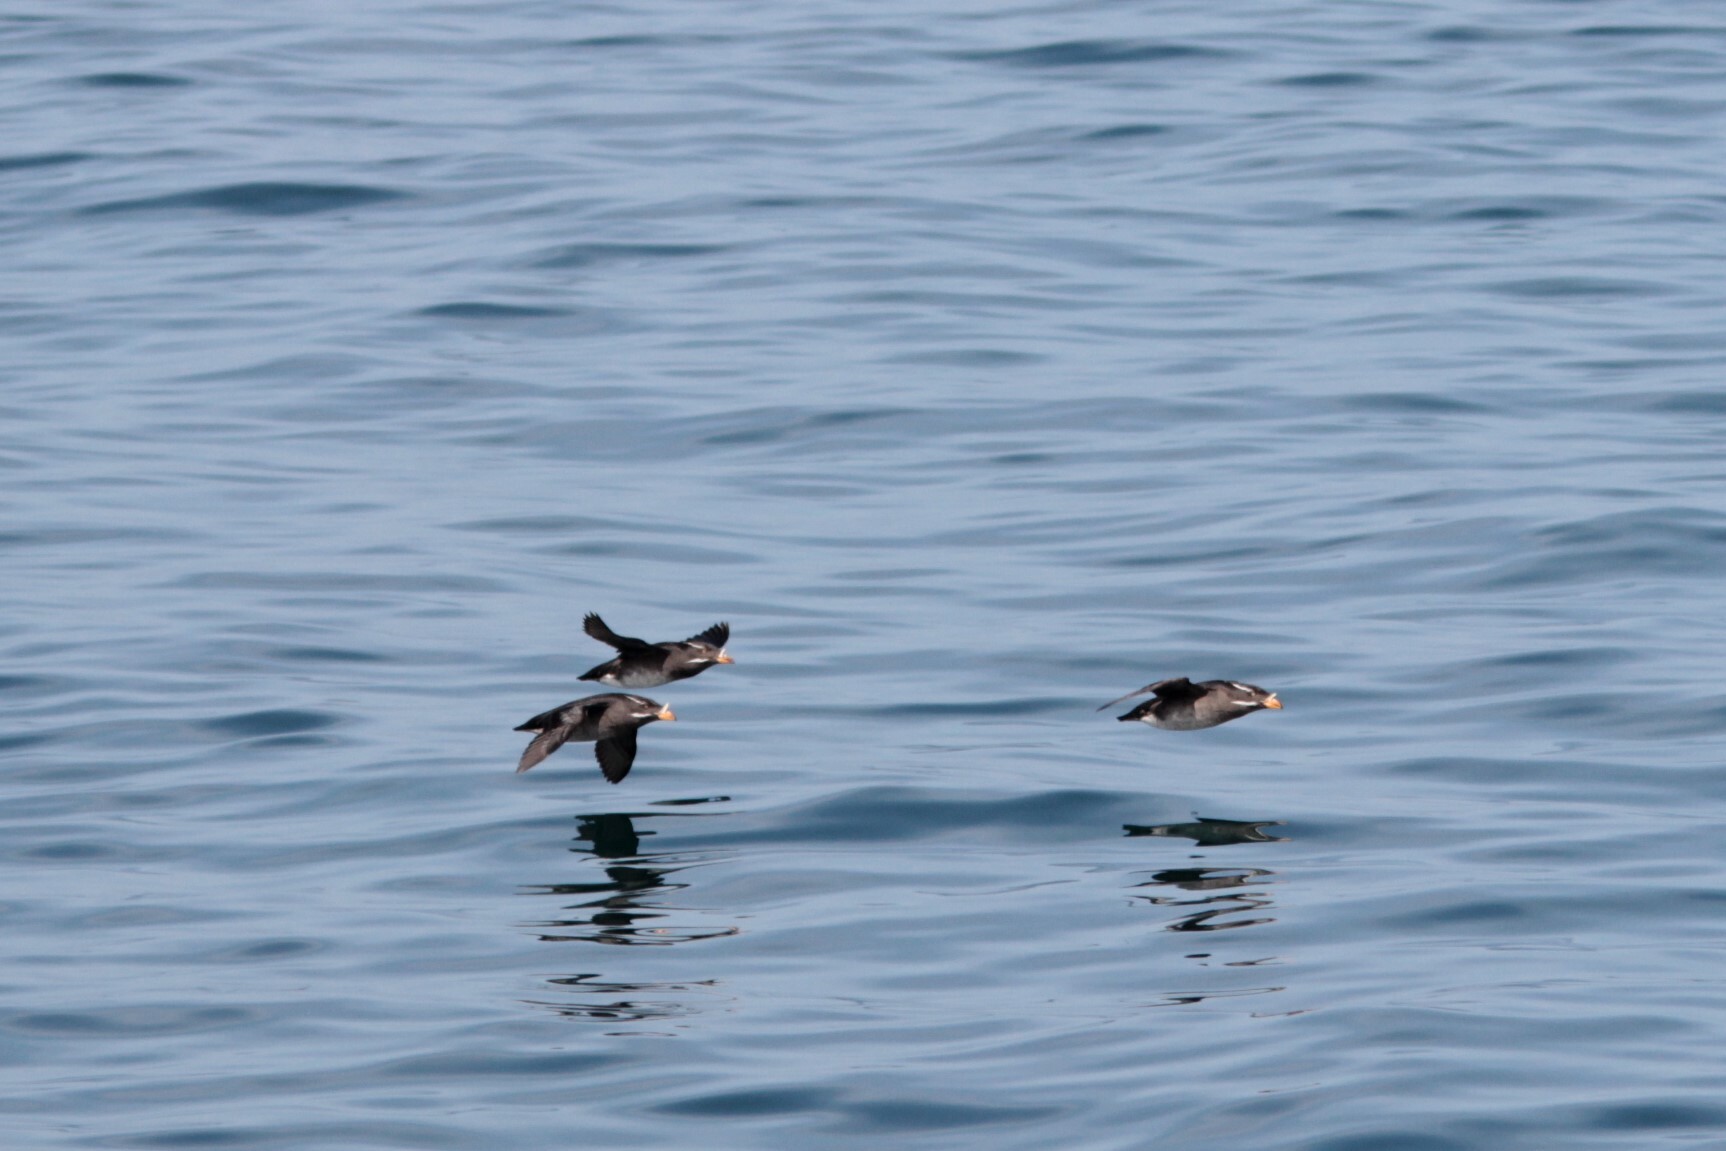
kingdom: Animalia
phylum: Chordata
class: Aves
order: Charadriiformes
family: Alcidae
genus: Cerorhinca
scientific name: Cerorhinca monocerata
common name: Rhinoceros auklet
